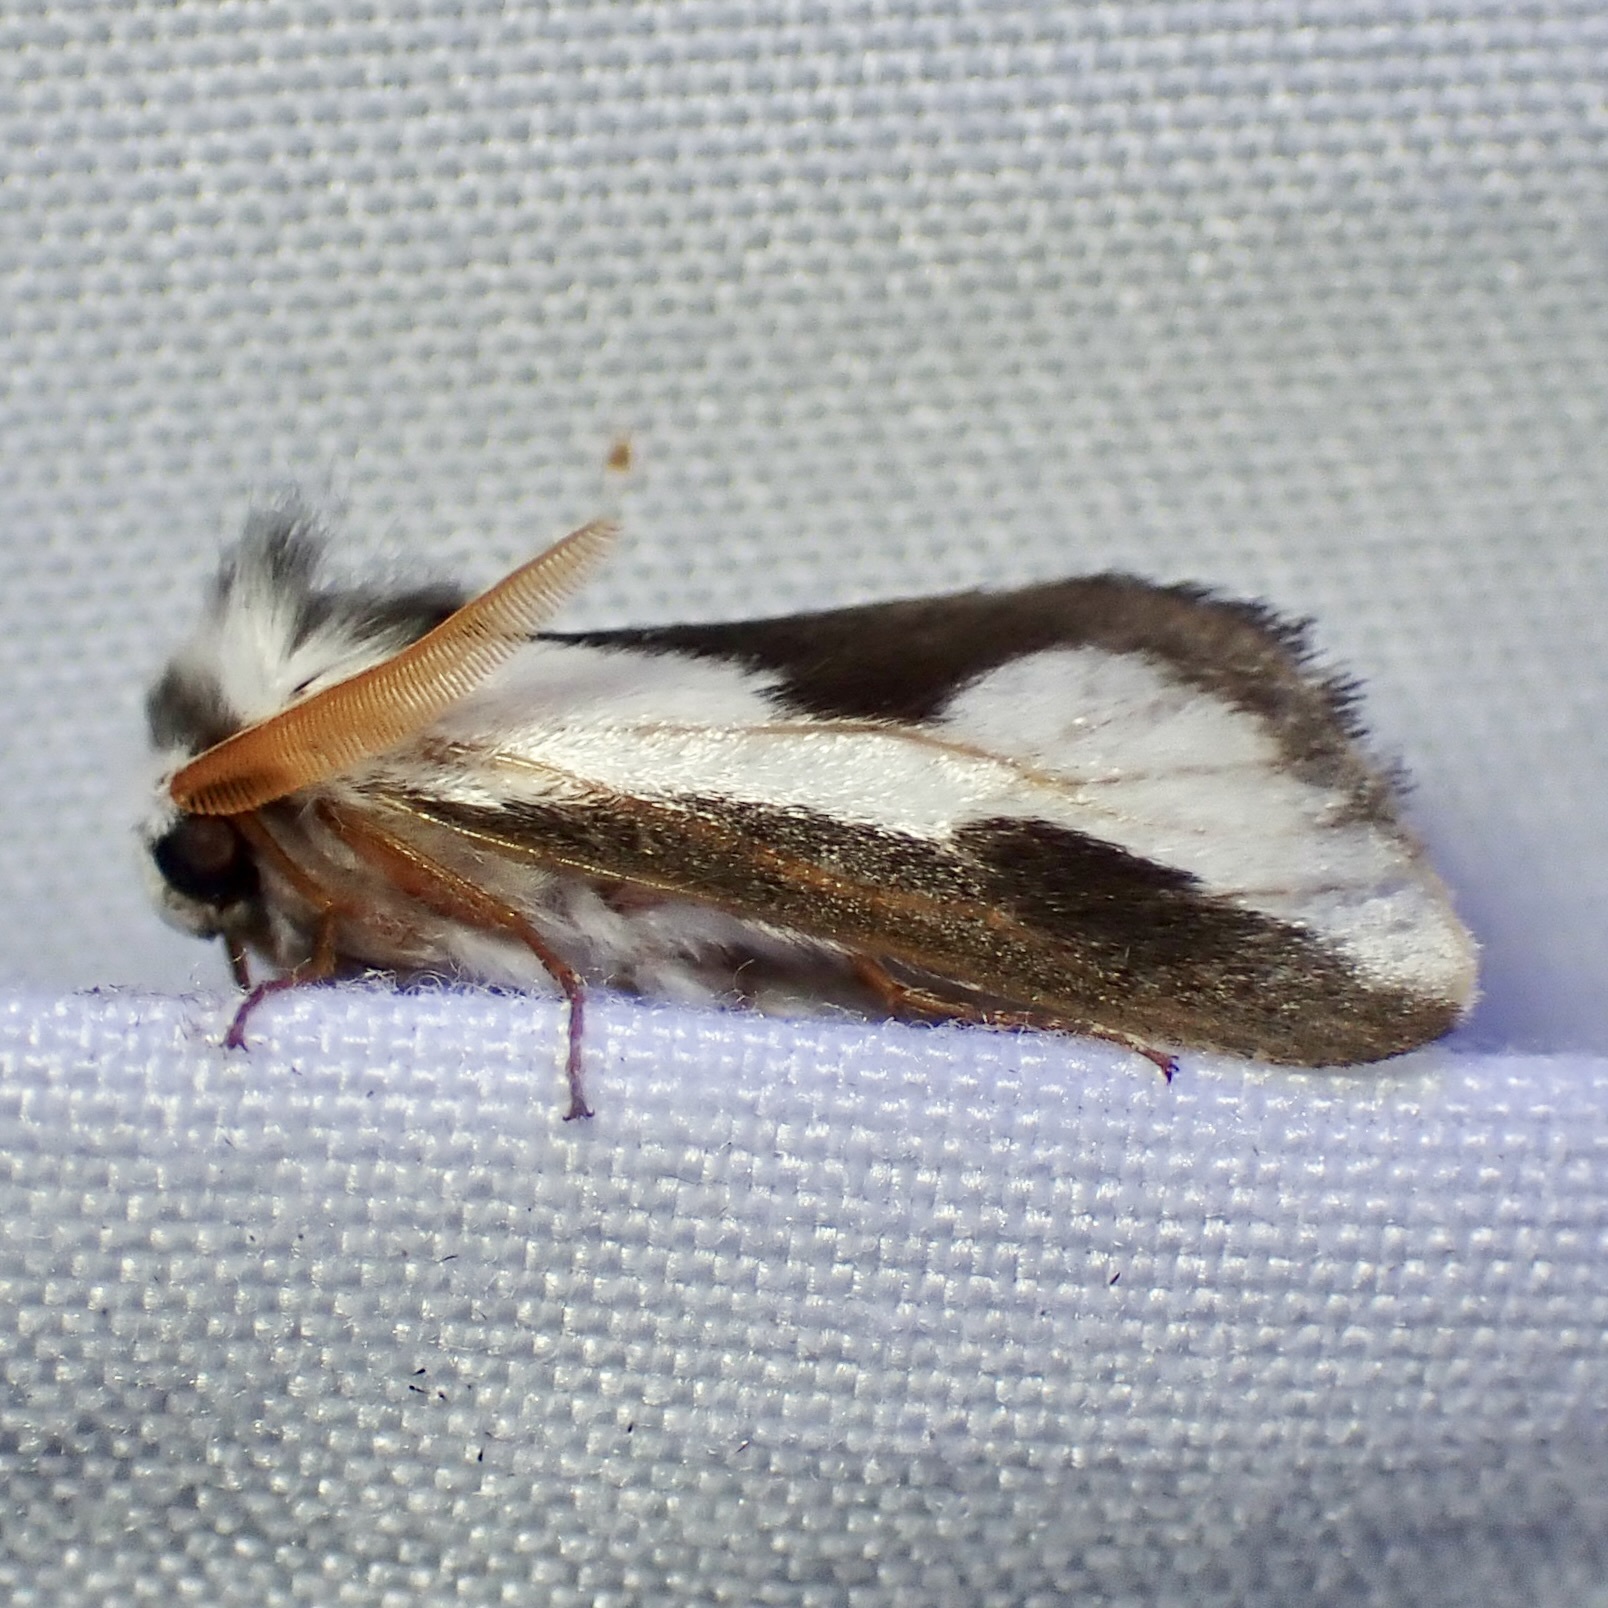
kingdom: Animalia
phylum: Arthropoda
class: Insecta
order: Lepidoptera
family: Megalopygidae
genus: Norape
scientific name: Norape tener
